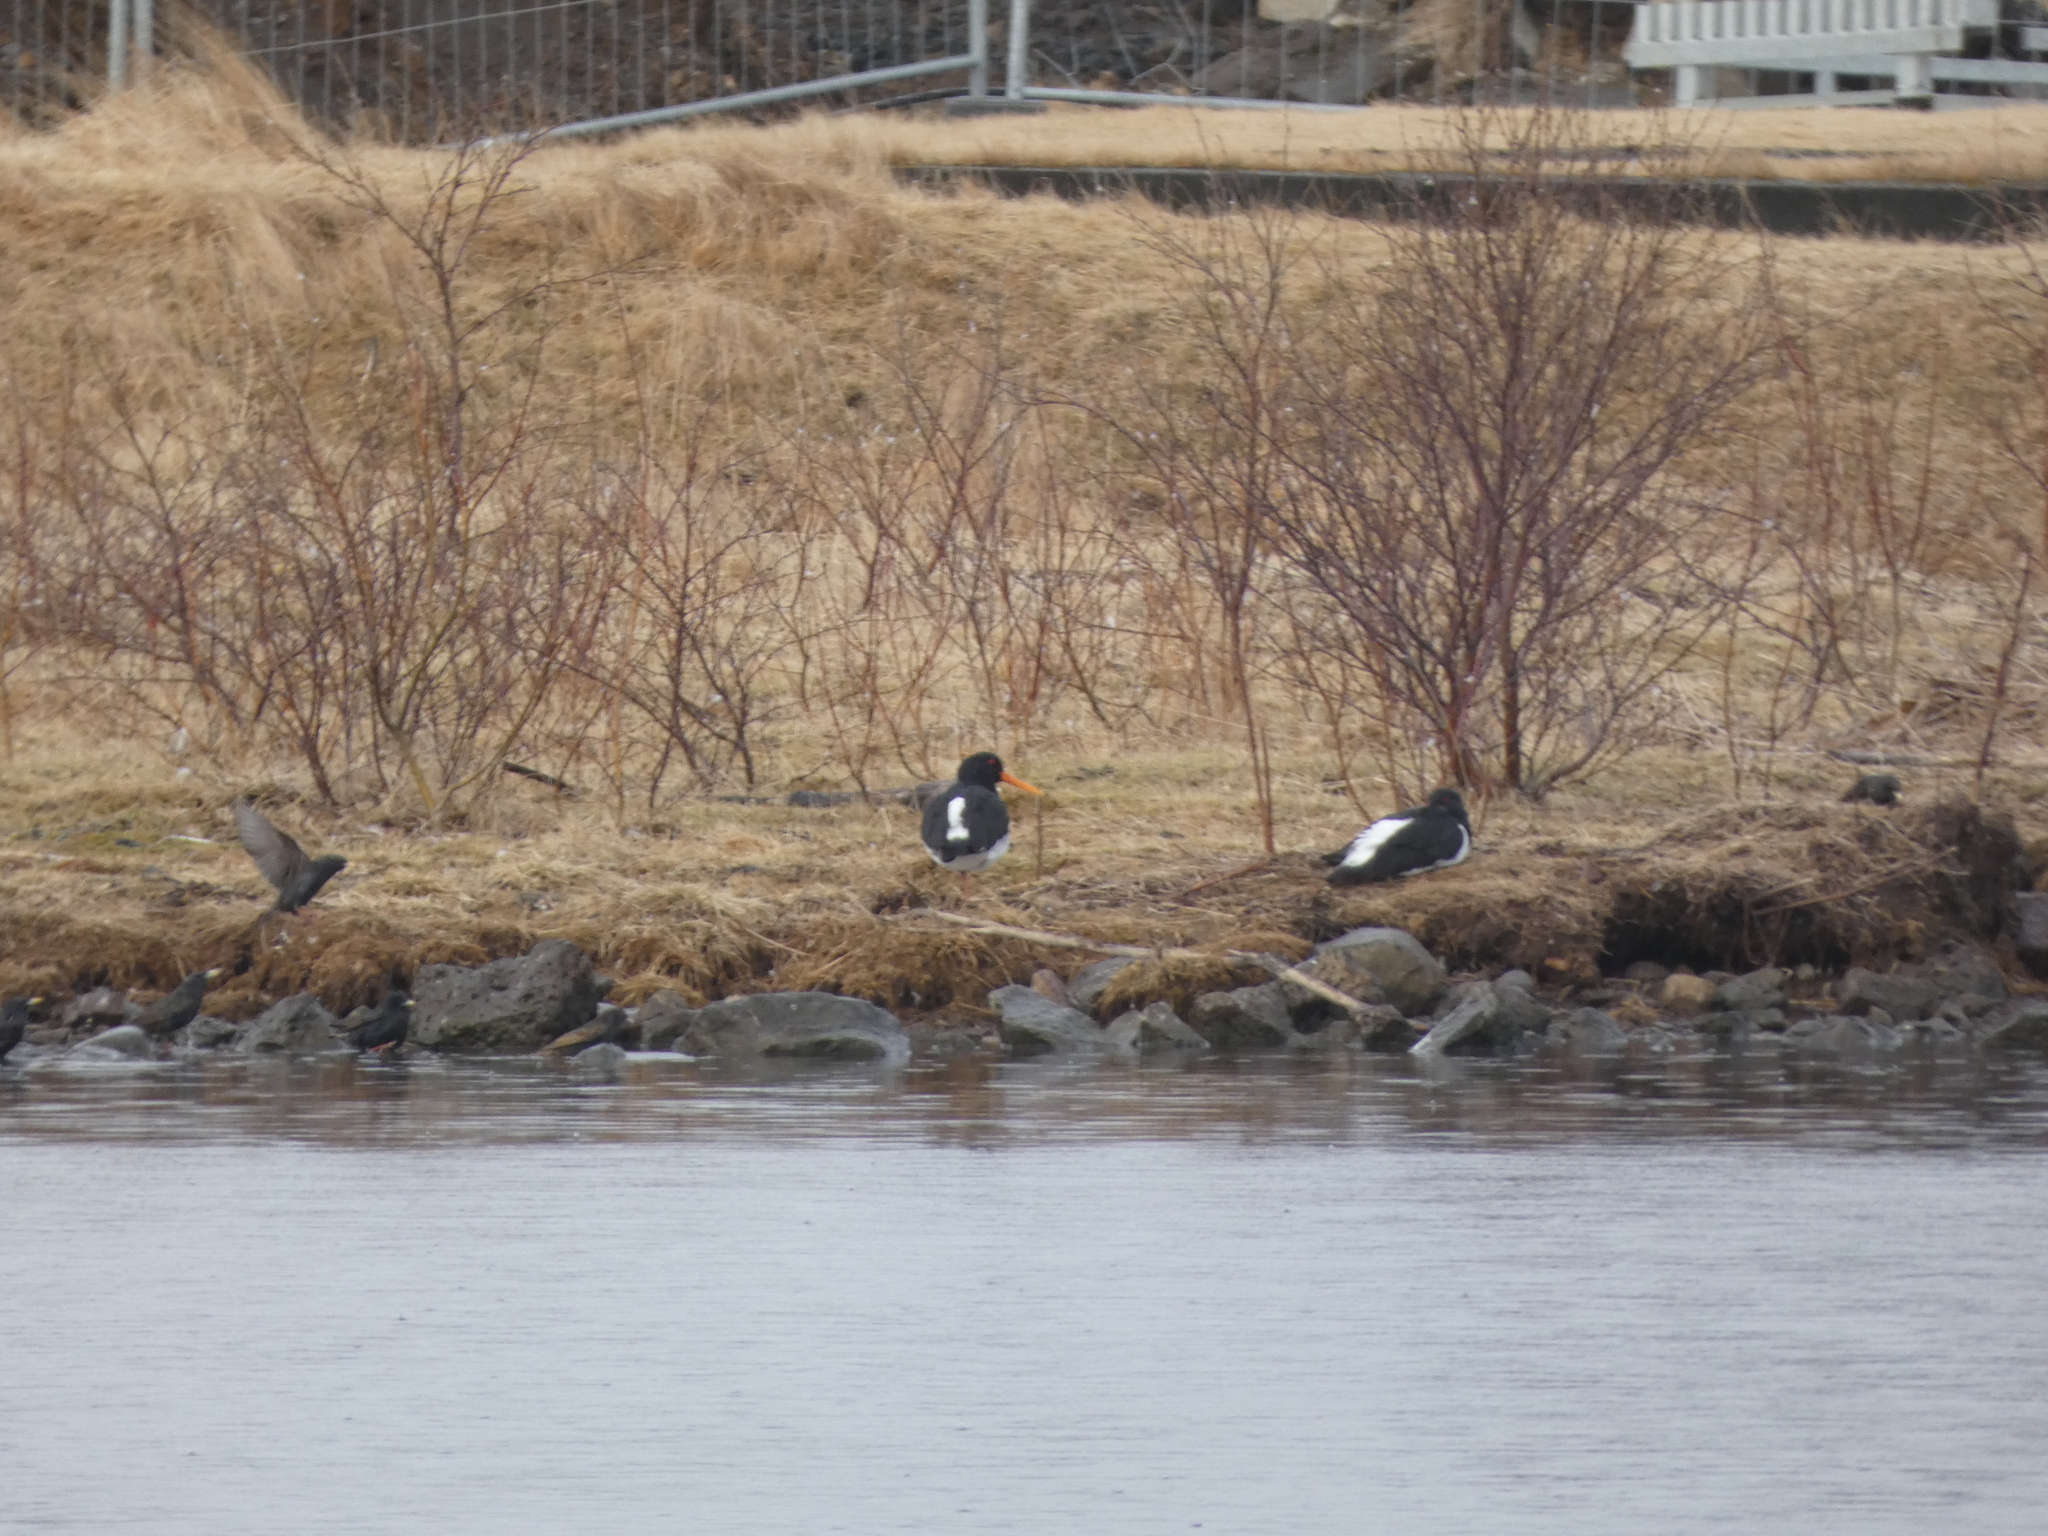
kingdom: Animalia
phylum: Chordata
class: Aves
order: Charadriiformes
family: Haematopodidae
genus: Haematopus
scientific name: Haematopus ostralegus
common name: Eurasian oystercatcher
